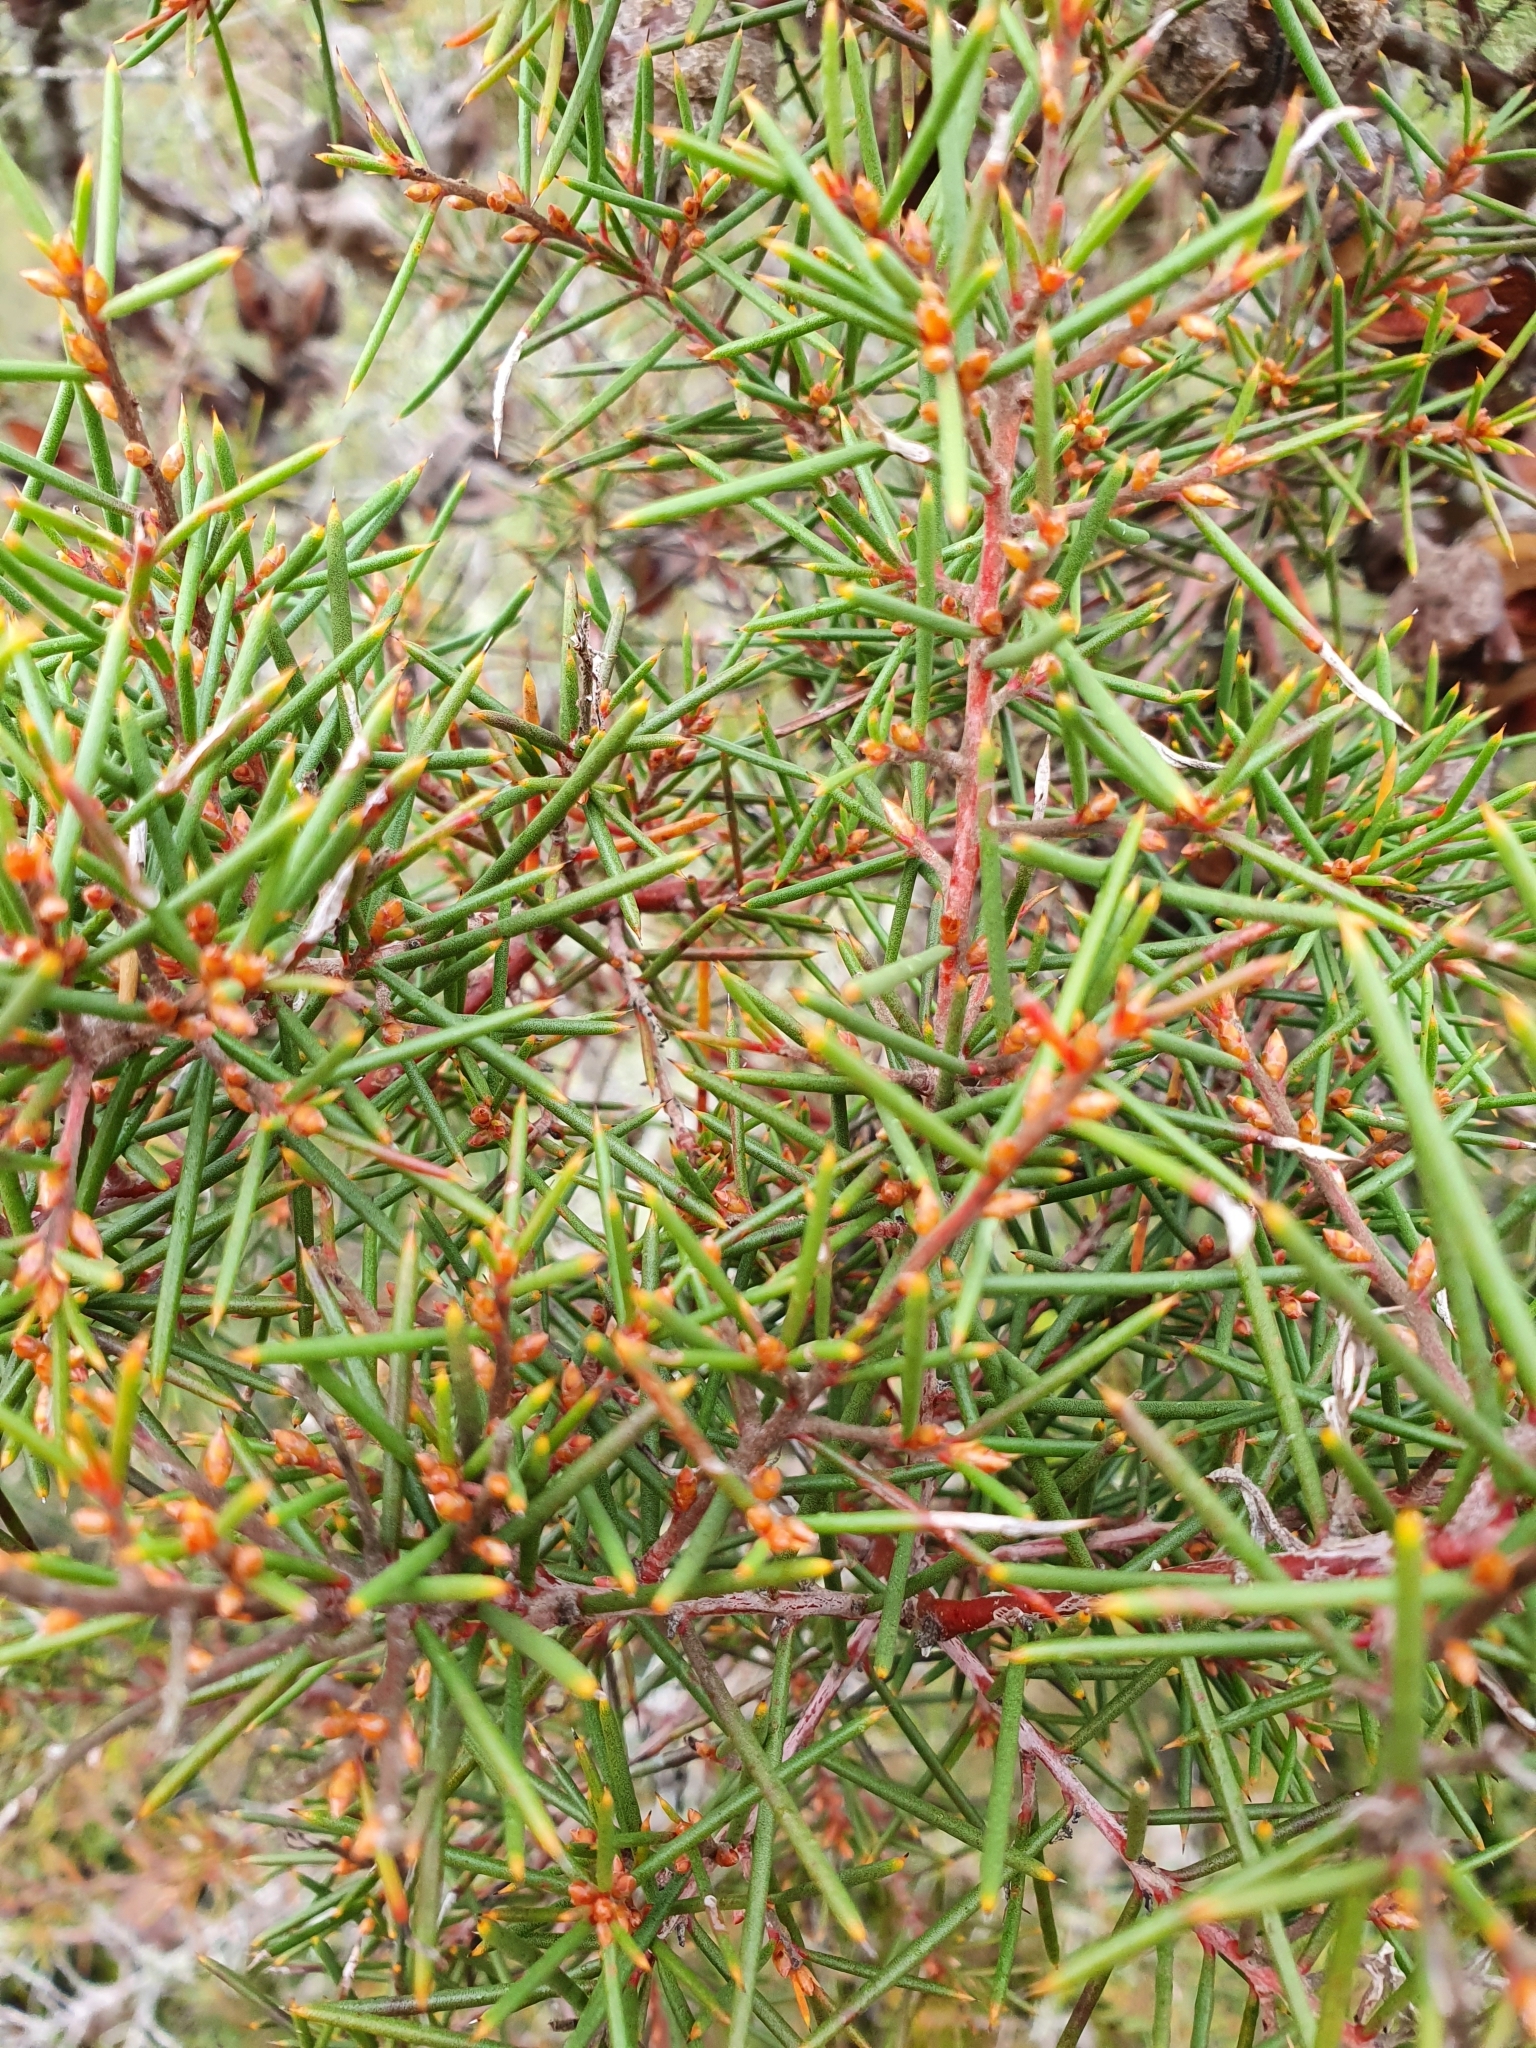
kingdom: Plantae
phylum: Tracheophyta
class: Magnoliopsida
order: Proteales
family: Proteaceae
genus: Hakea
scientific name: Hakea sericea
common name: Needle bush
